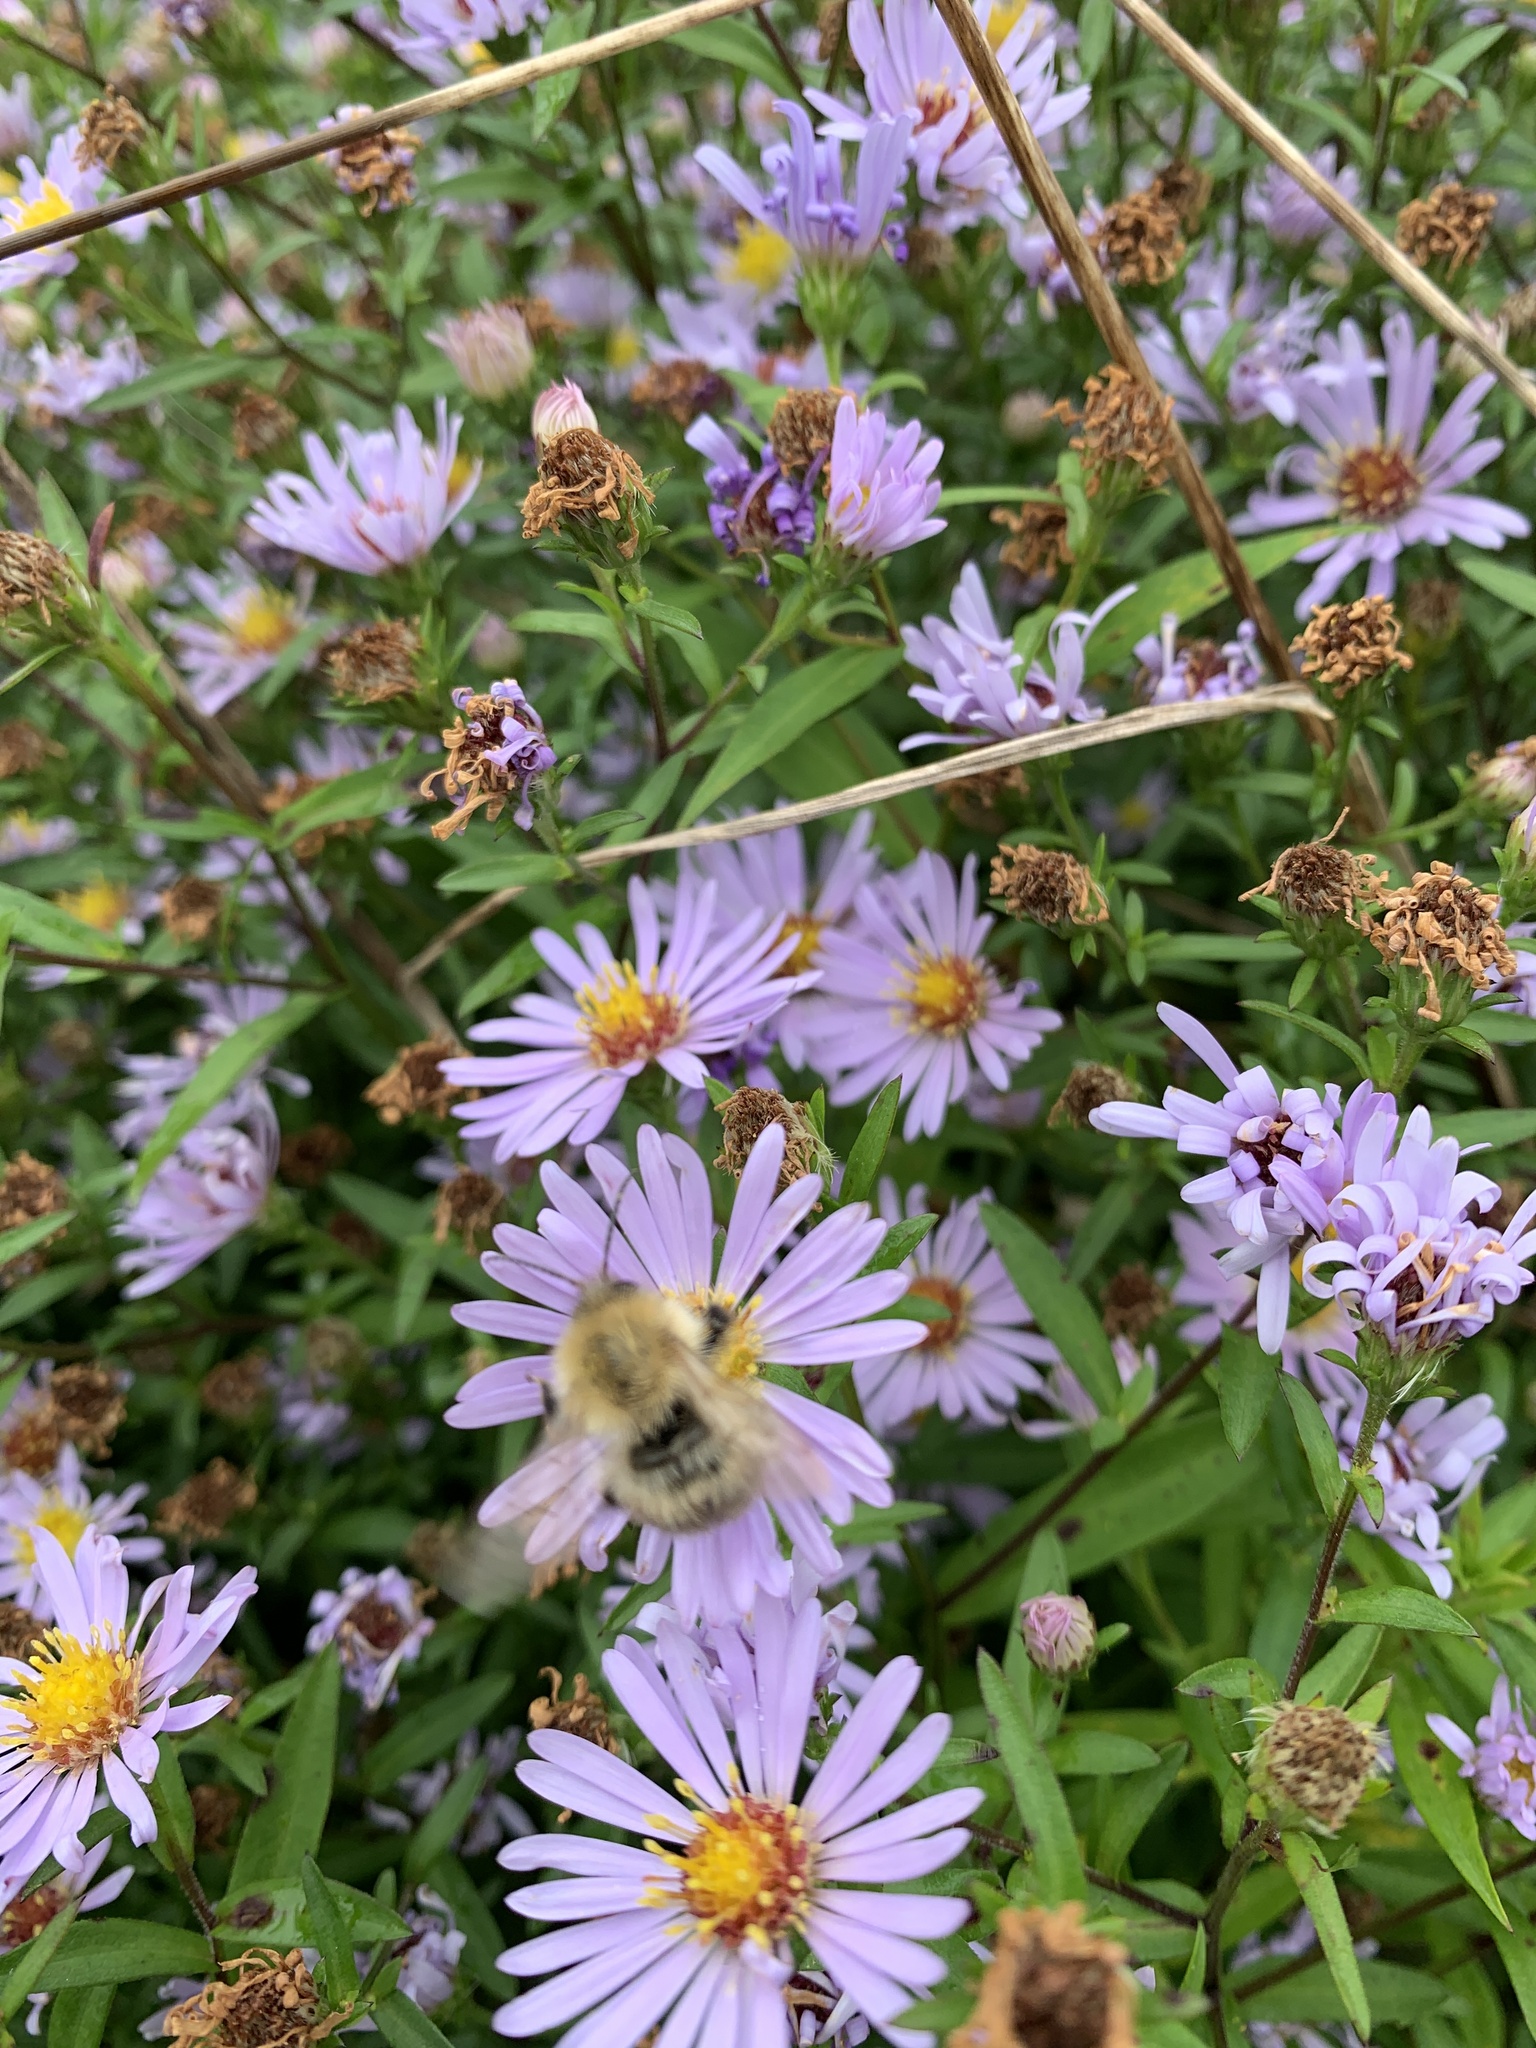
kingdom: Animalia
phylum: Arthropoda
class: Insecta
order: Hymenoptera
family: Apidae
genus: Bombus
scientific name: Bombus pascuorum
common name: Common carder bee
